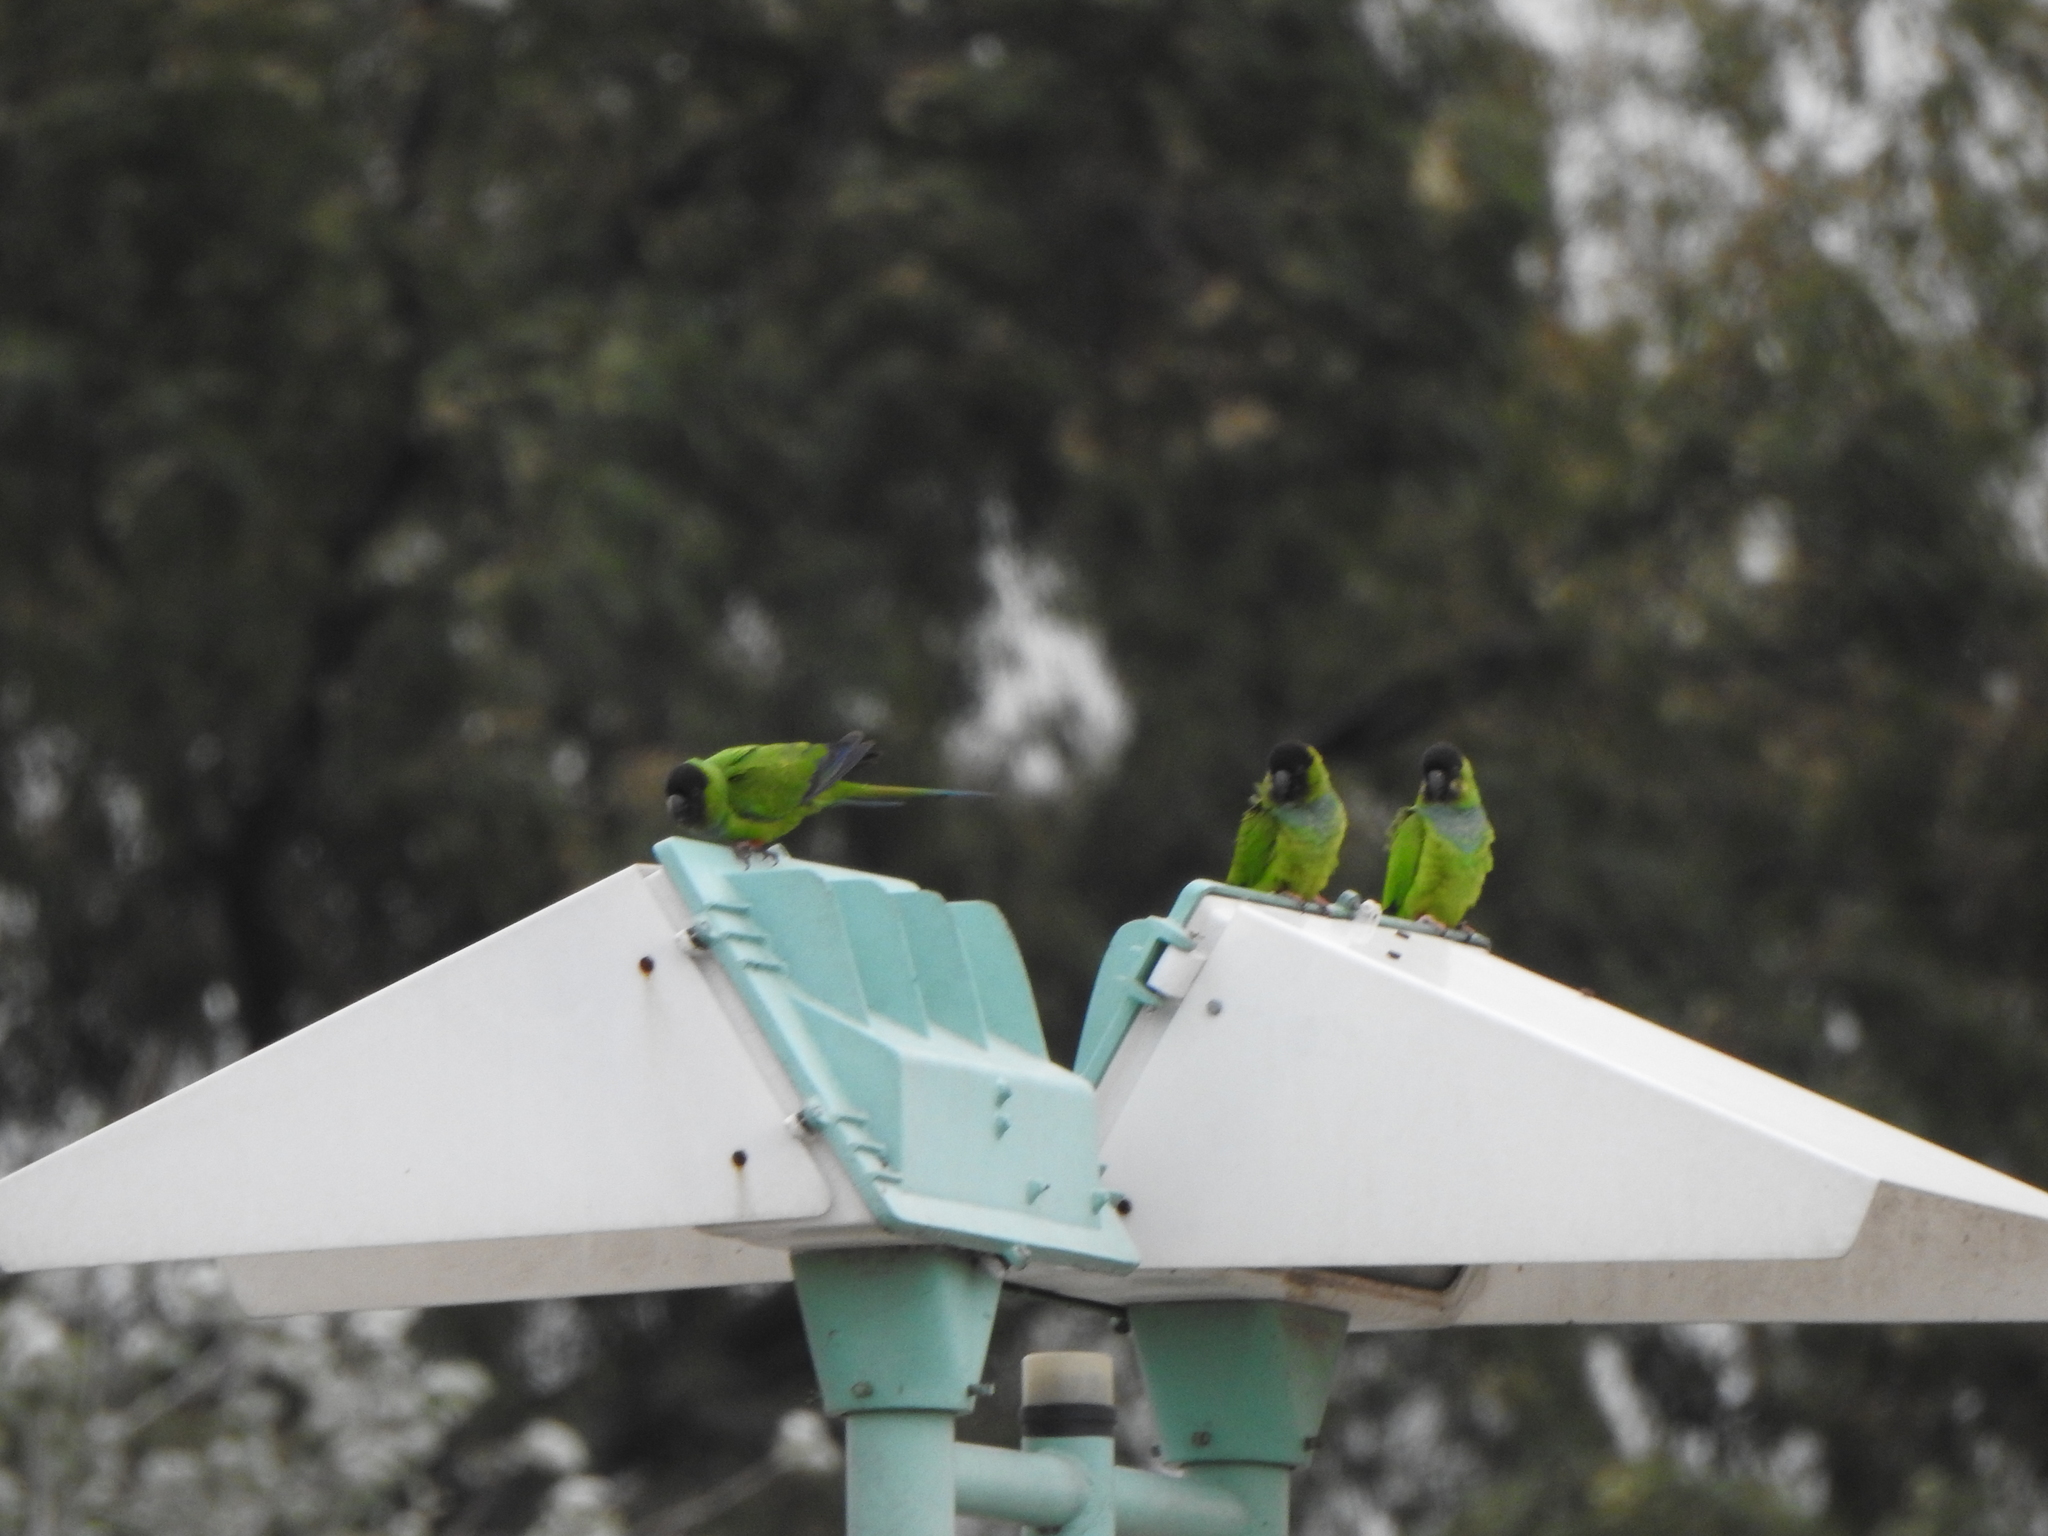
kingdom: Animalia
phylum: Chordata
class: Aves
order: Psittaciformes
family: Psittacidae
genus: Nandayus
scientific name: Nandayus nenday
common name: Nanday parakeet
